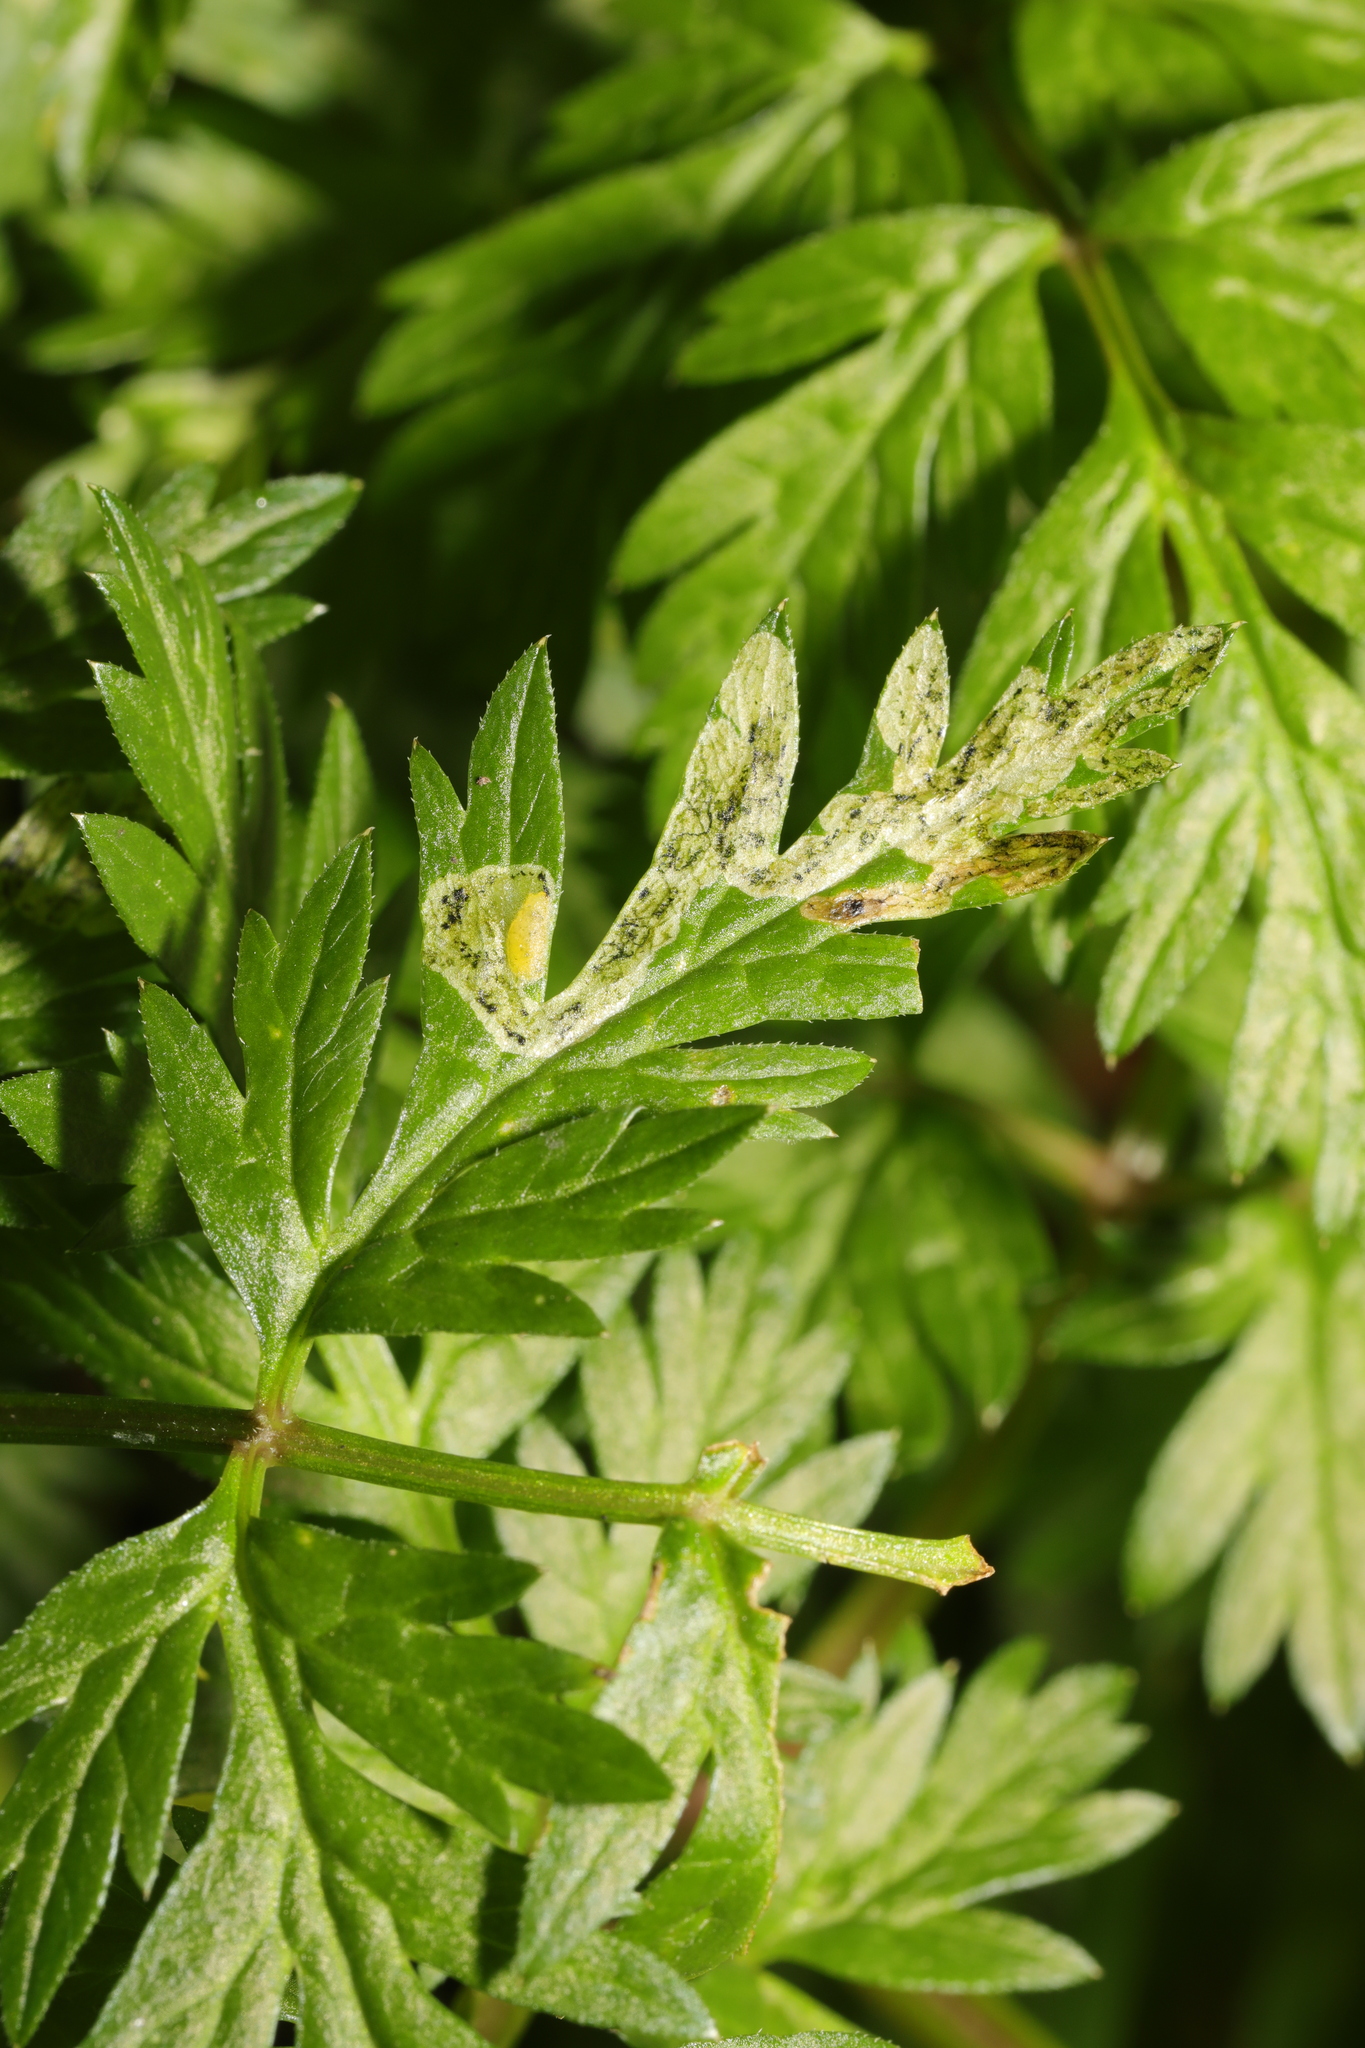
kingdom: Animalia
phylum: Arthropoda
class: Insecta
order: Diptera
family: Agromyzidae
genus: Phytomyza
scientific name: Phytomyza chaerophylli
